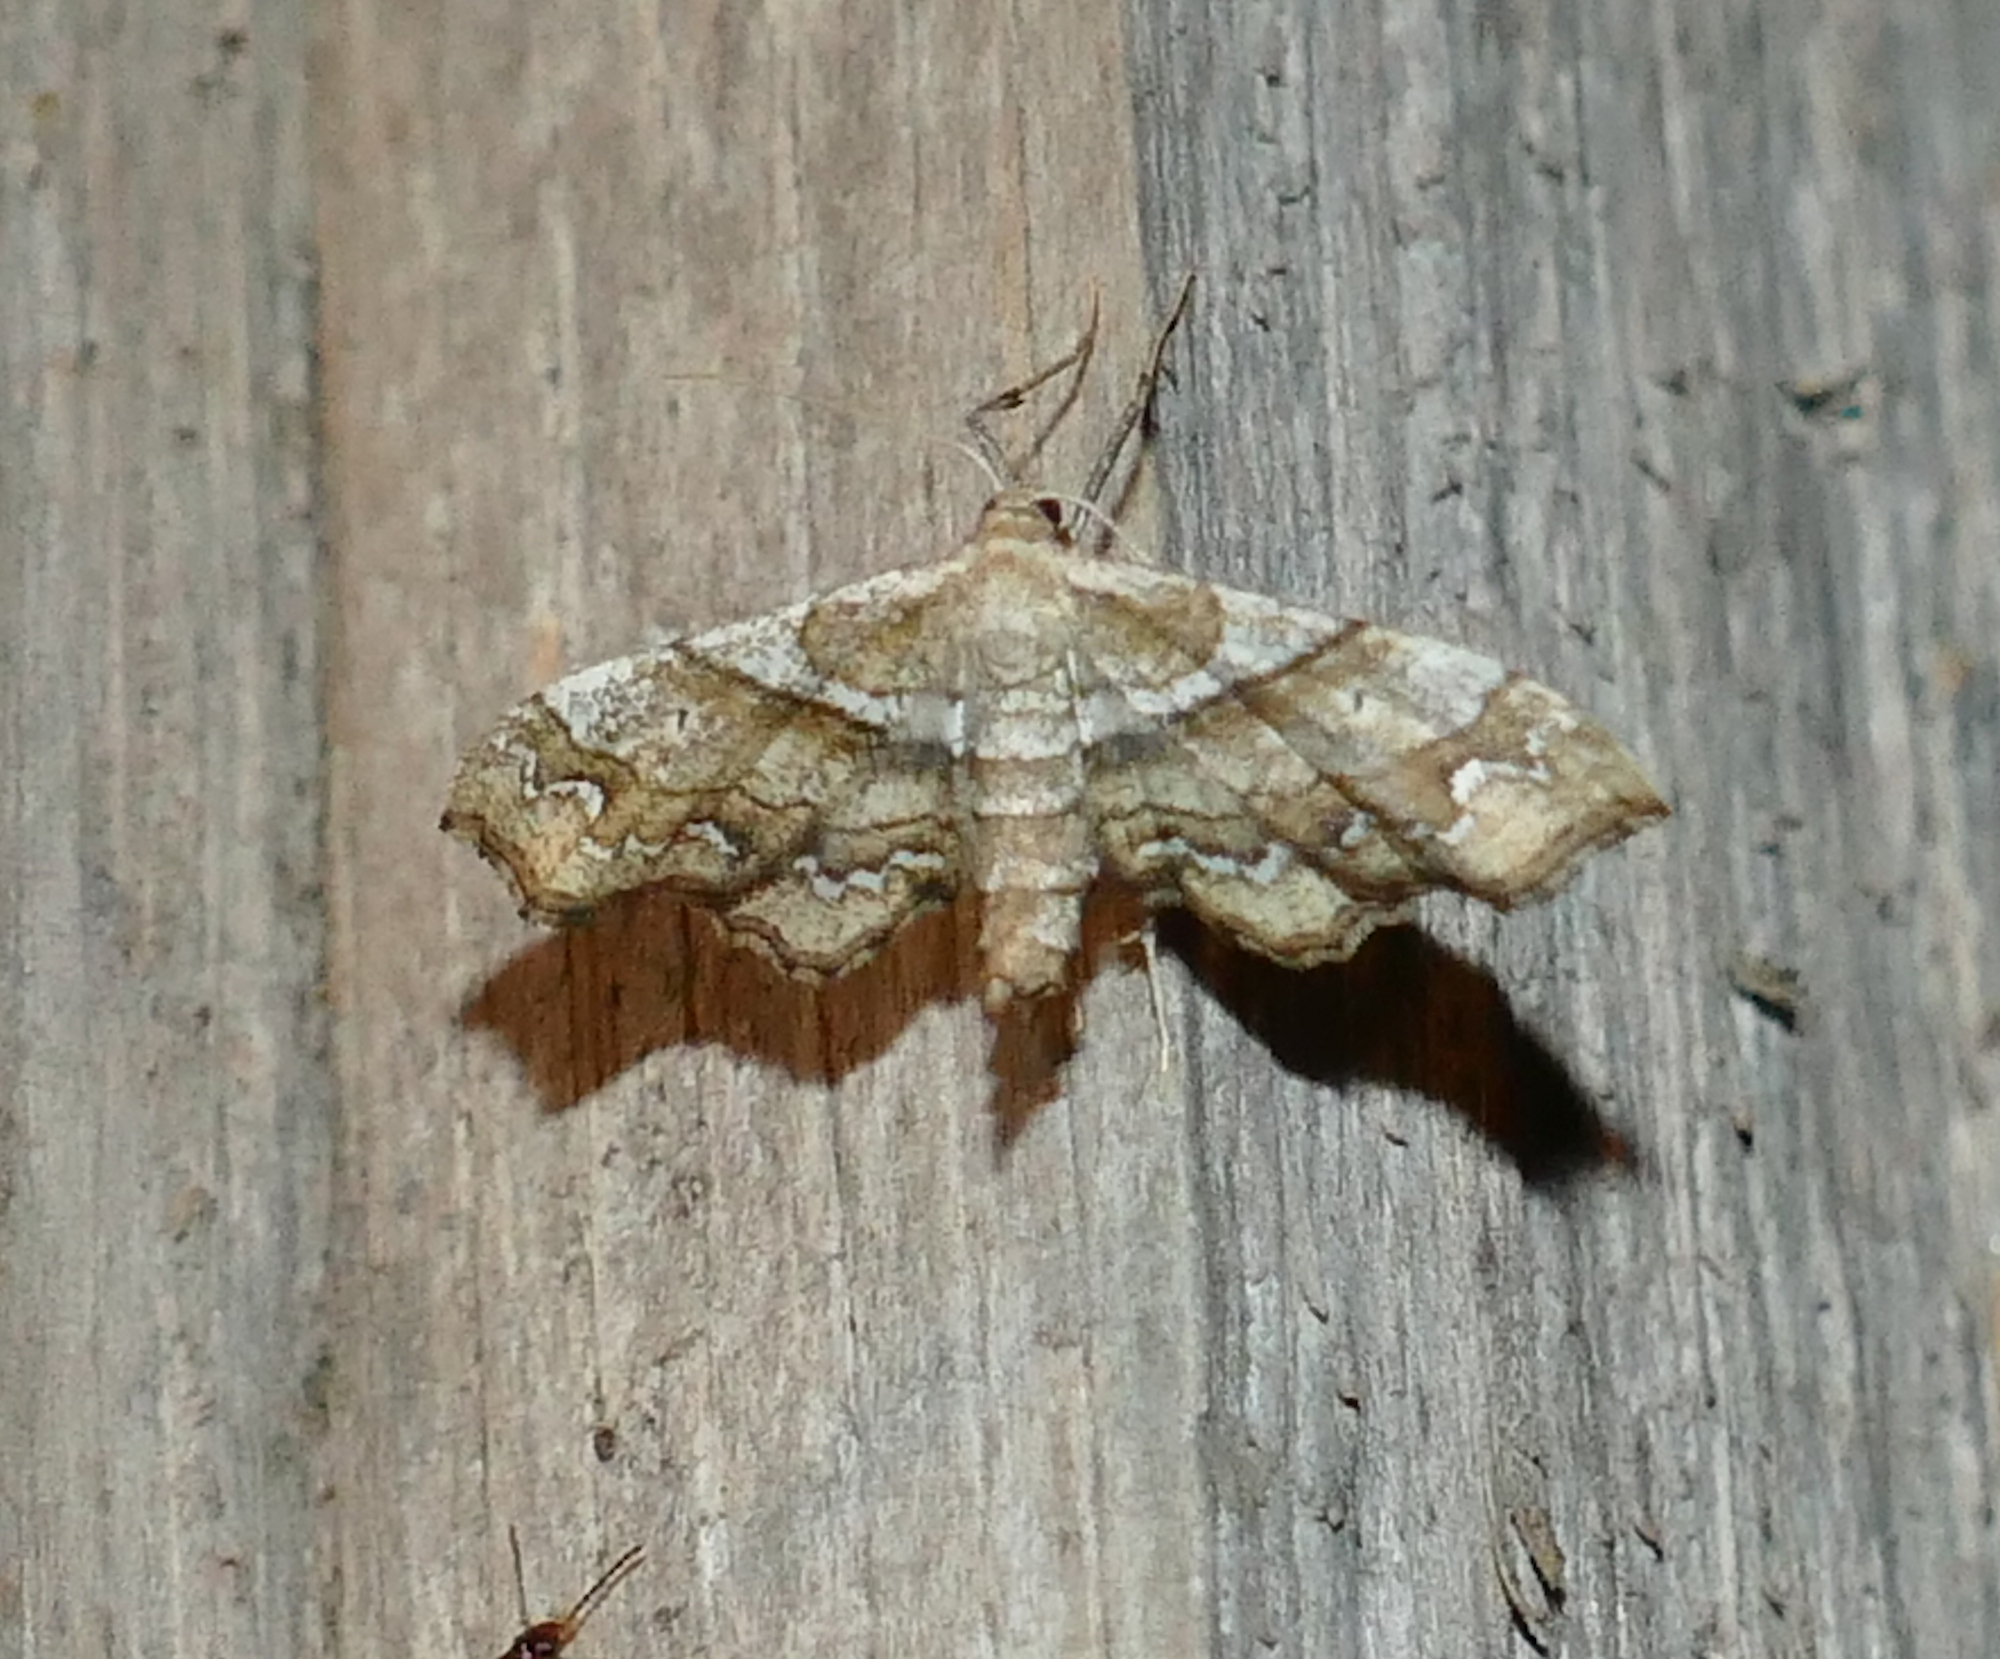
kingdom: Animalia
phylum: Arthropoda
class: Insecta
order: Lepidoptera
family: Geometridae
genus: Odontoptila
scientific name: Odontoptila obrimo
